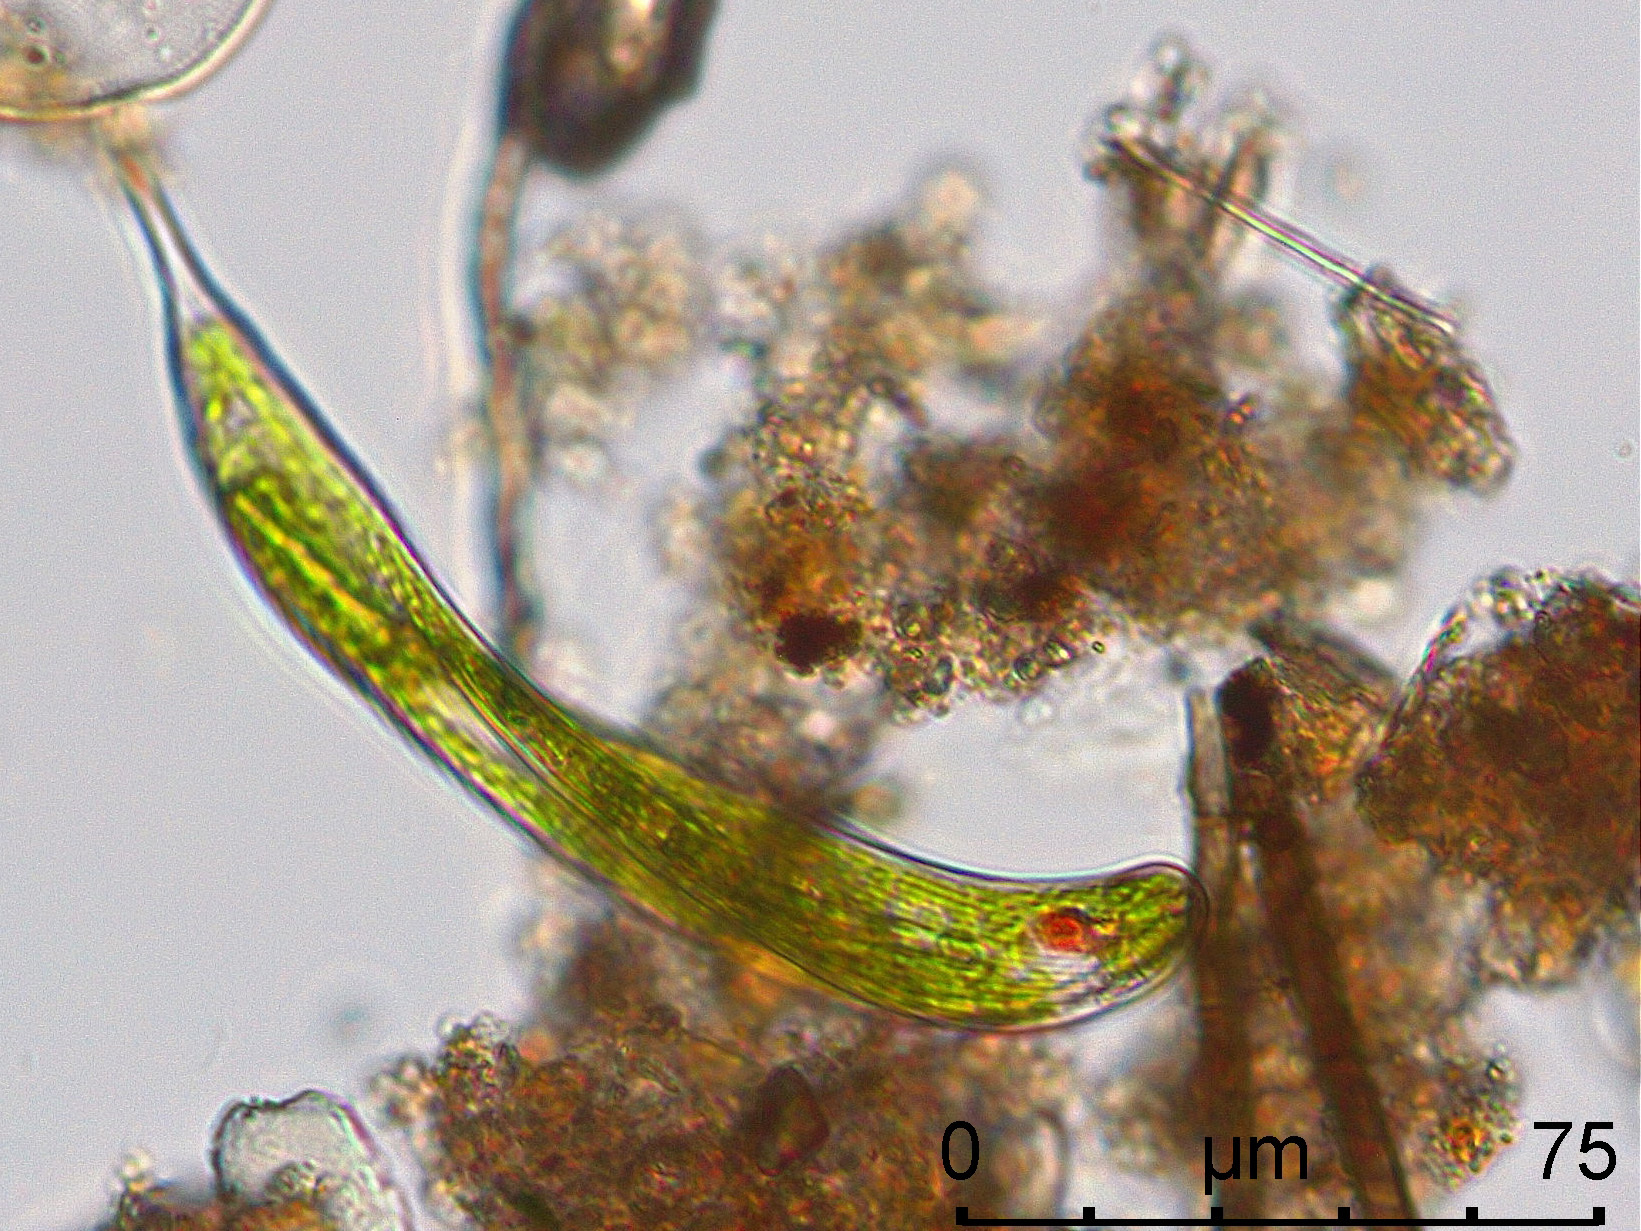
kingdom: Protozoa
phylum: Euglenozoa
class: Euglenoidea
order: Euglenida
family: Phacidae
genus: Lepocinclis
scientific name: Lepocinclis tripteris
